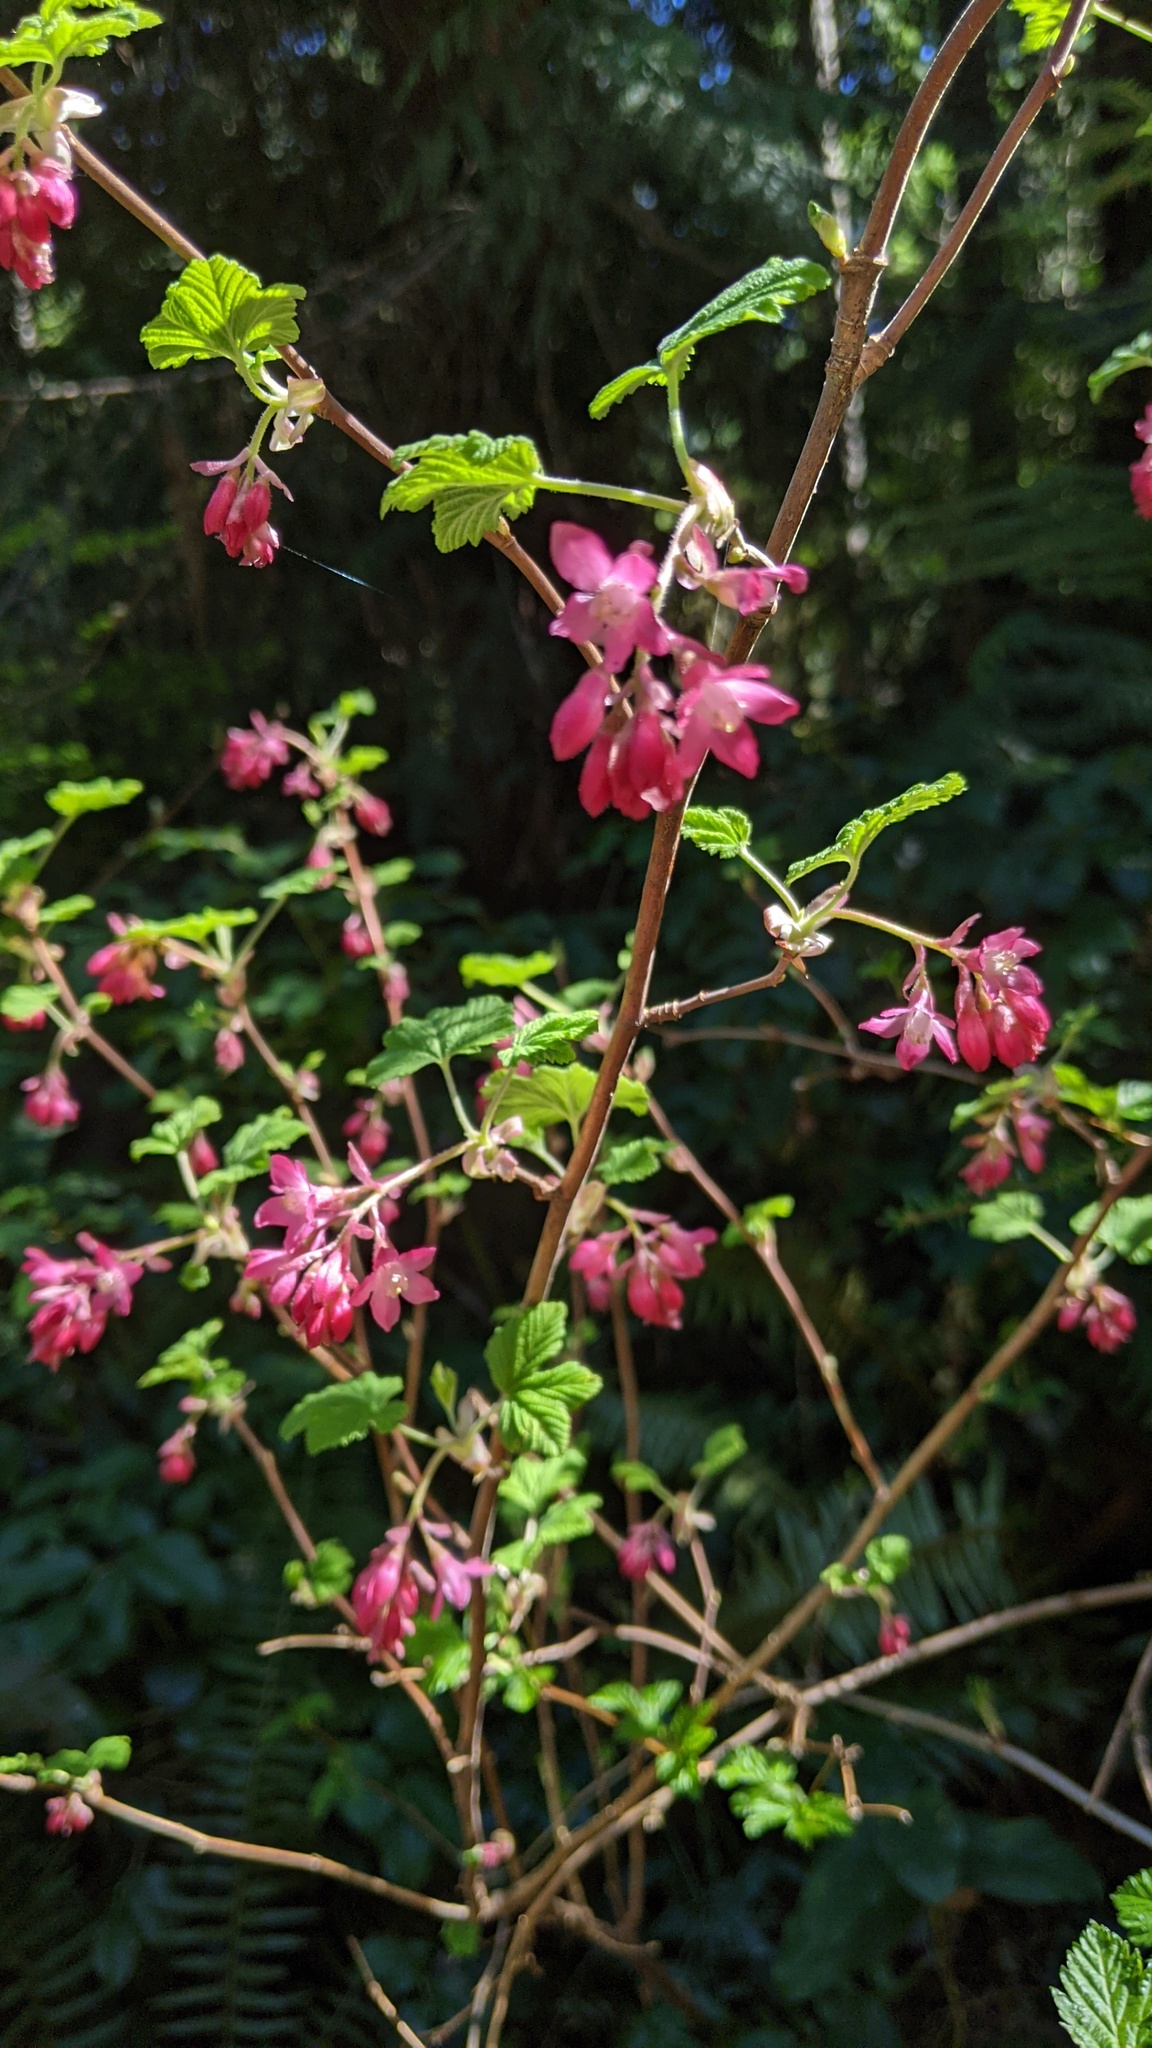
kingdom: Plantae
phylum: Tracheophyta
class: Magnoliopsida
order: Saxifragales
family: Grossulariaceae
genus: Ribes
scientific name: Ribes sanguineum
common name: Flowering currant
